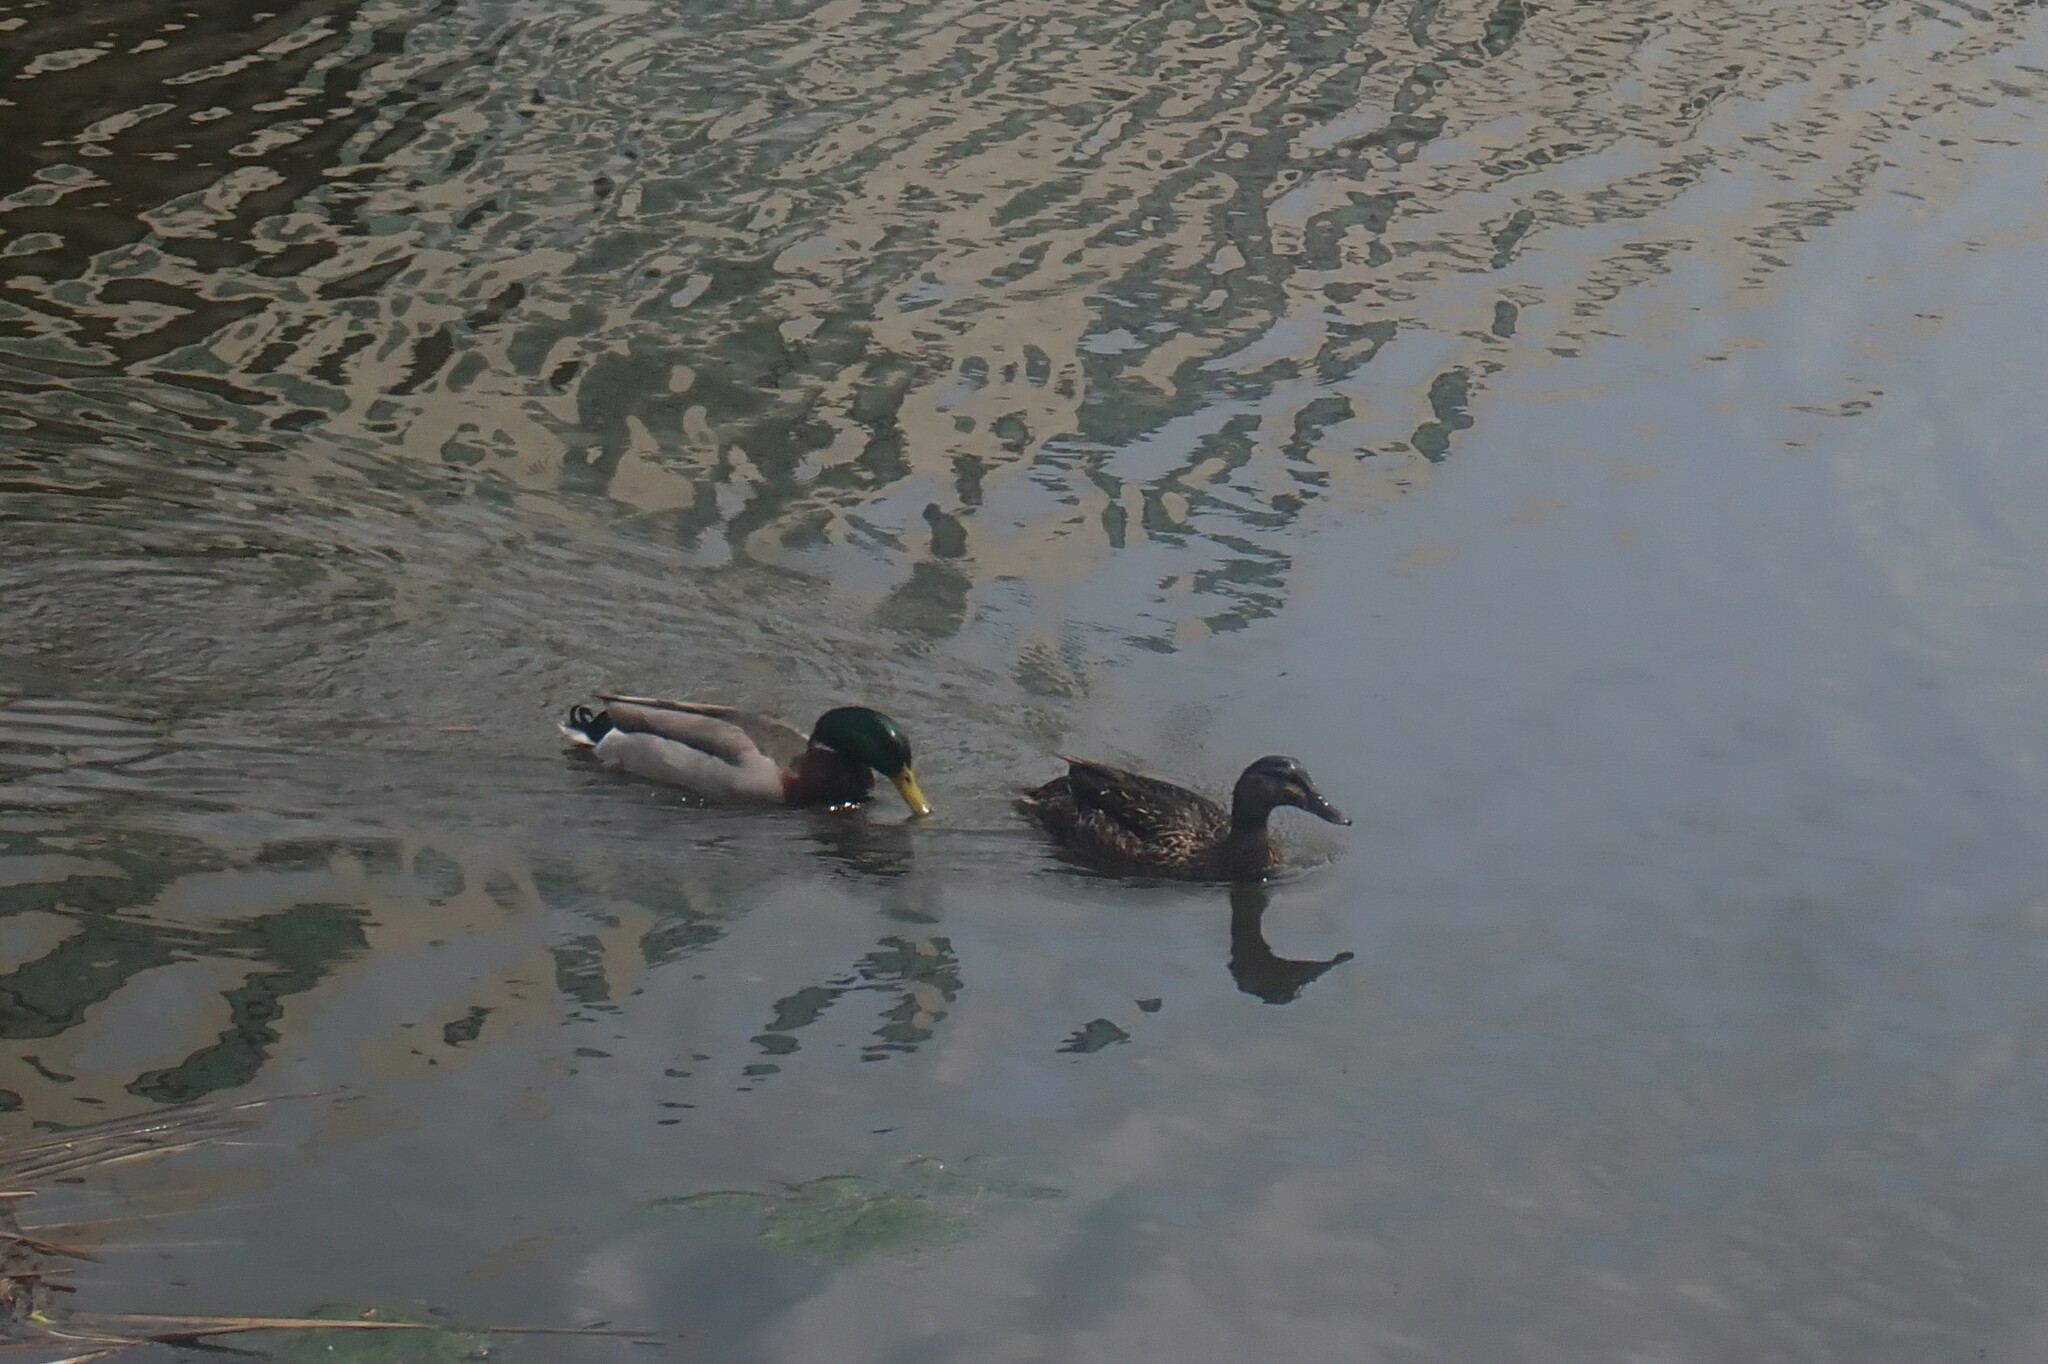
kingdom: Animalia
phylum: Chordata
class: Aves
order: Anseriformes
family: Anatidae
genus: Anas
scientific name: Anas platyrhynchos
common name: Mallard
